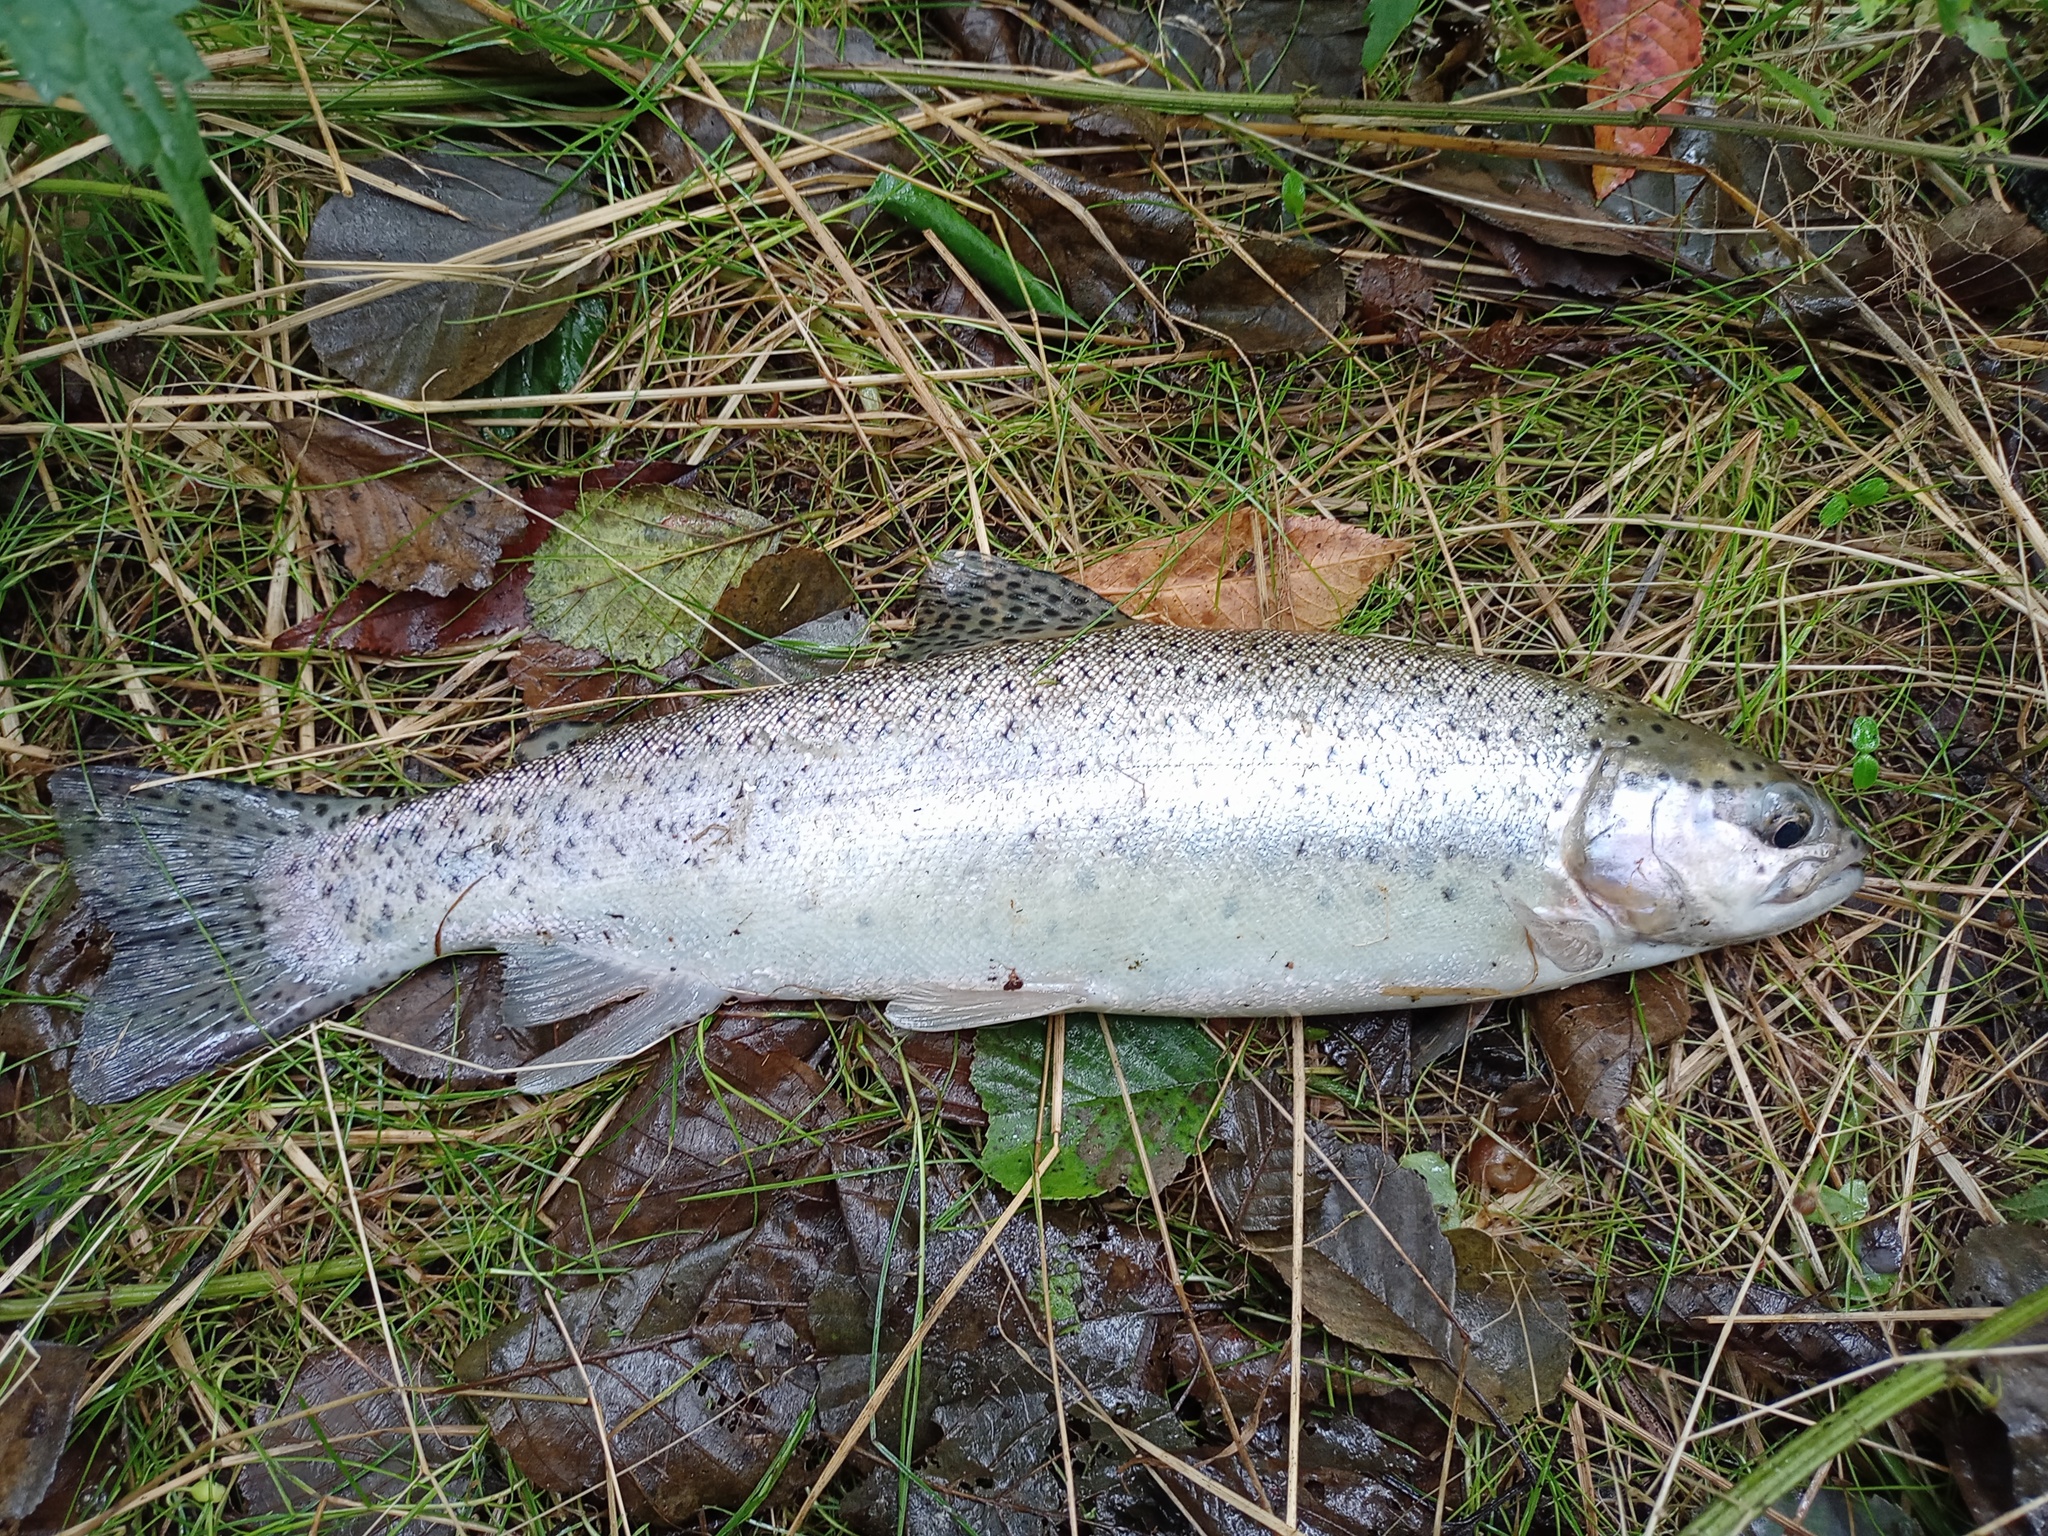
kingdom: Animalia
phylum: Chordata
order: Salmoniformes
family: Salmonidae
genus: Oncorhynchus
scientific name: Oncorhynchus mykiss
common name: Rainbow trout
